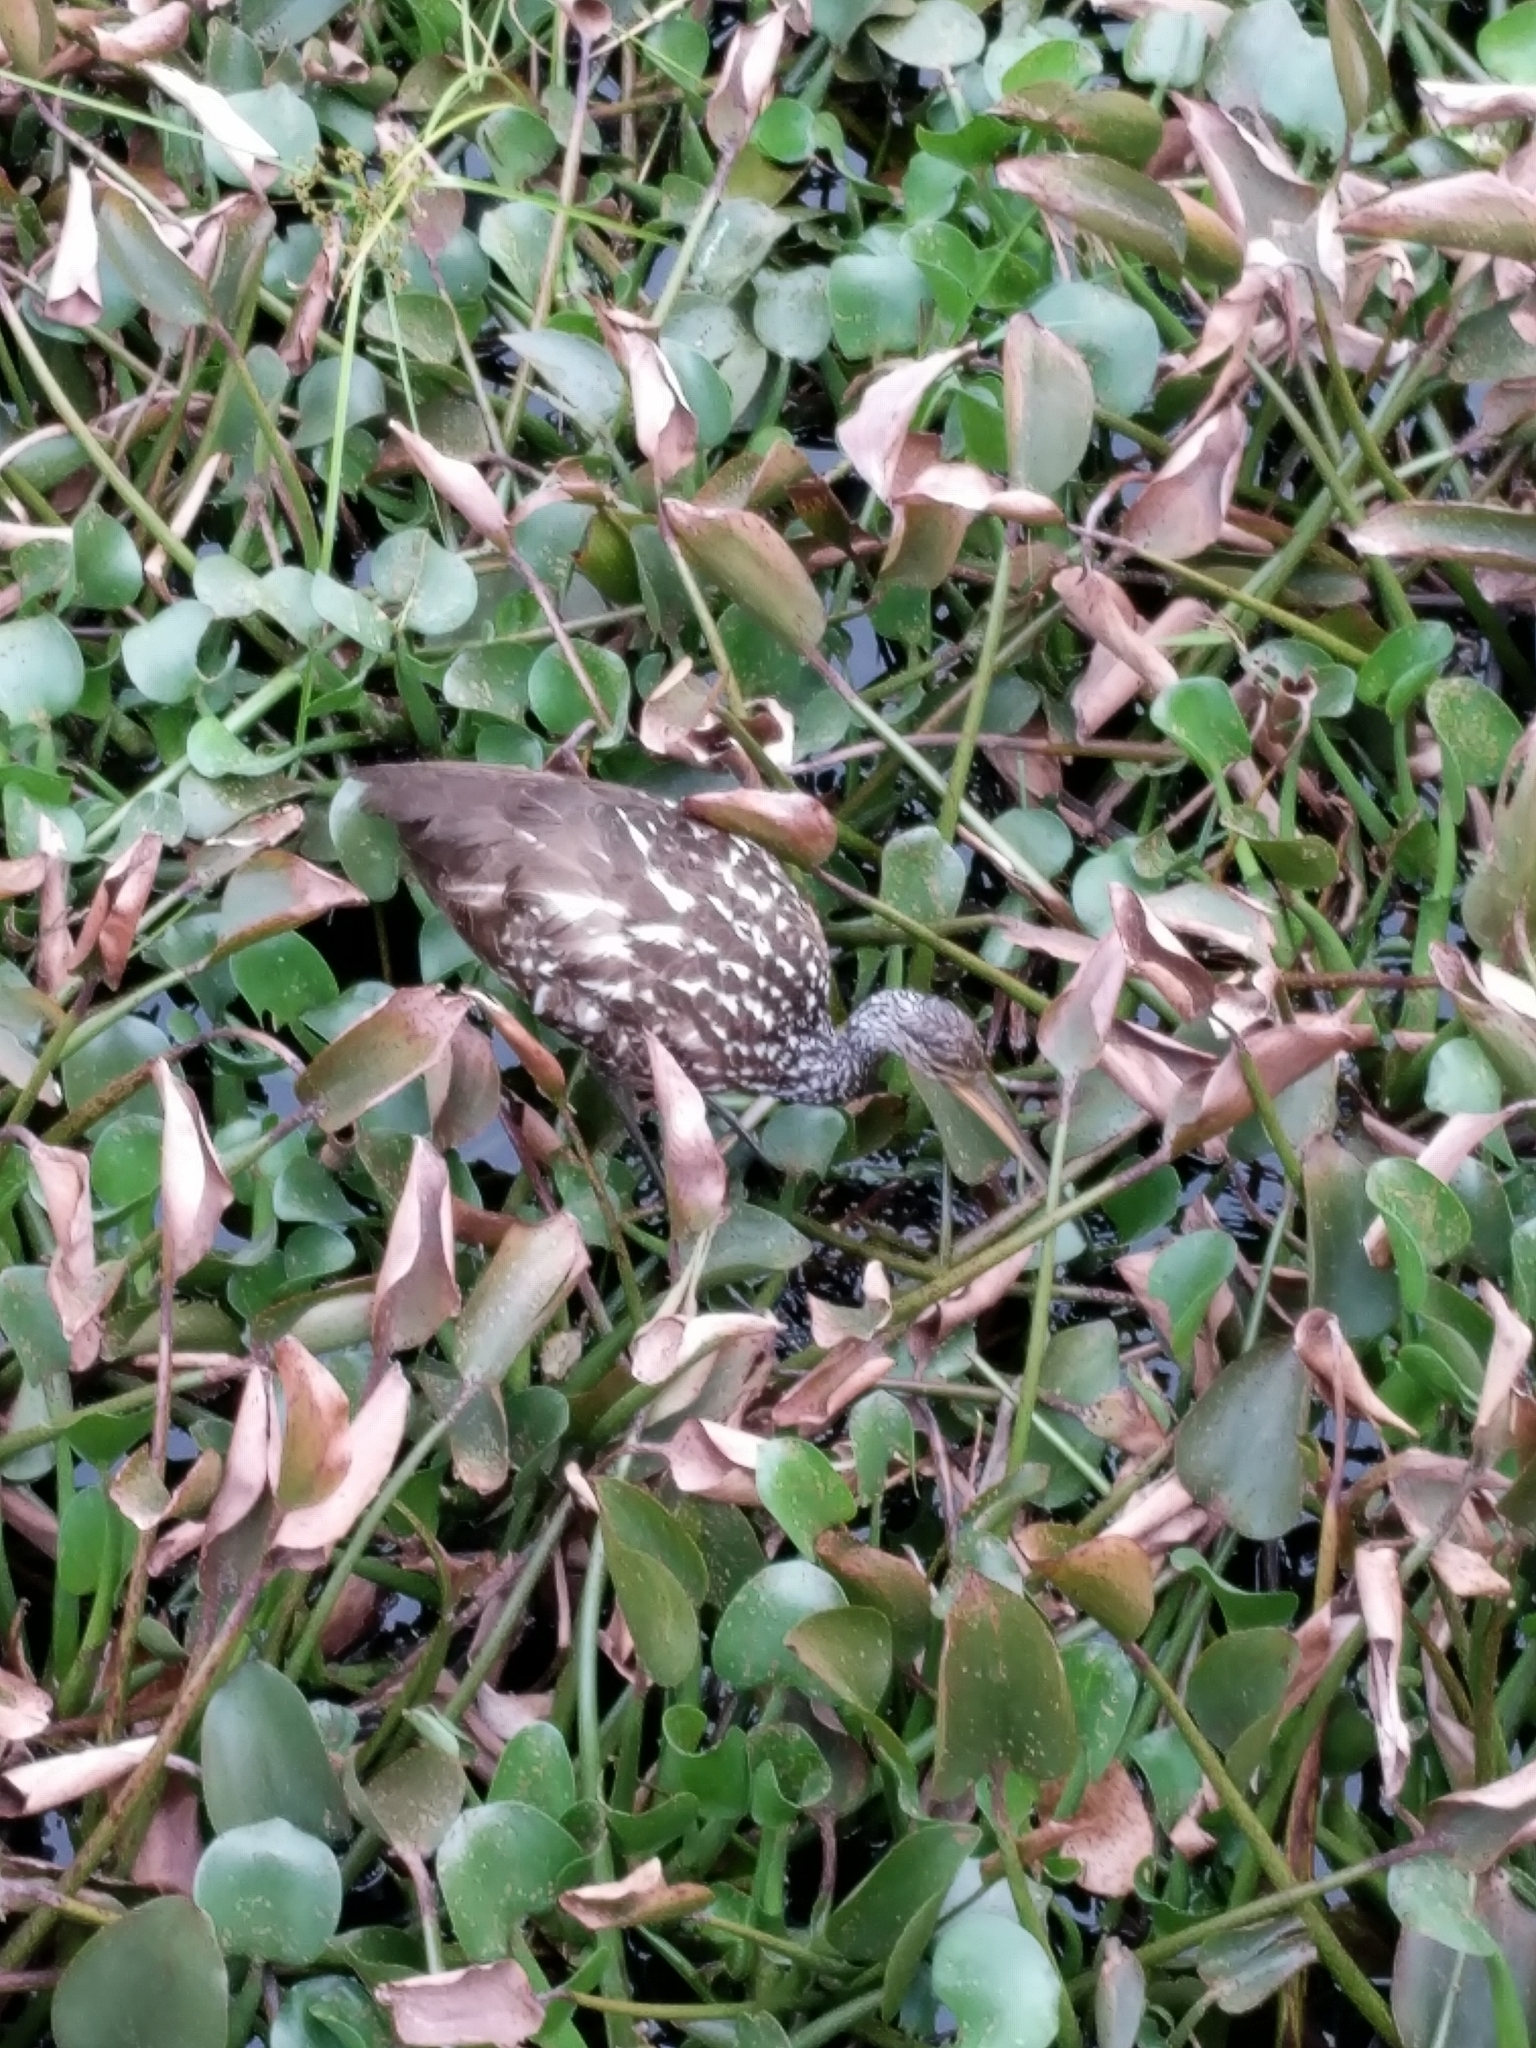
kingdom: Animalia
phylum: Chordata
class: Aves
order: Gruiformes
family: Aramidae
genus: Aramus
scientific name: Aramus guarauna
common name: Limpkin
